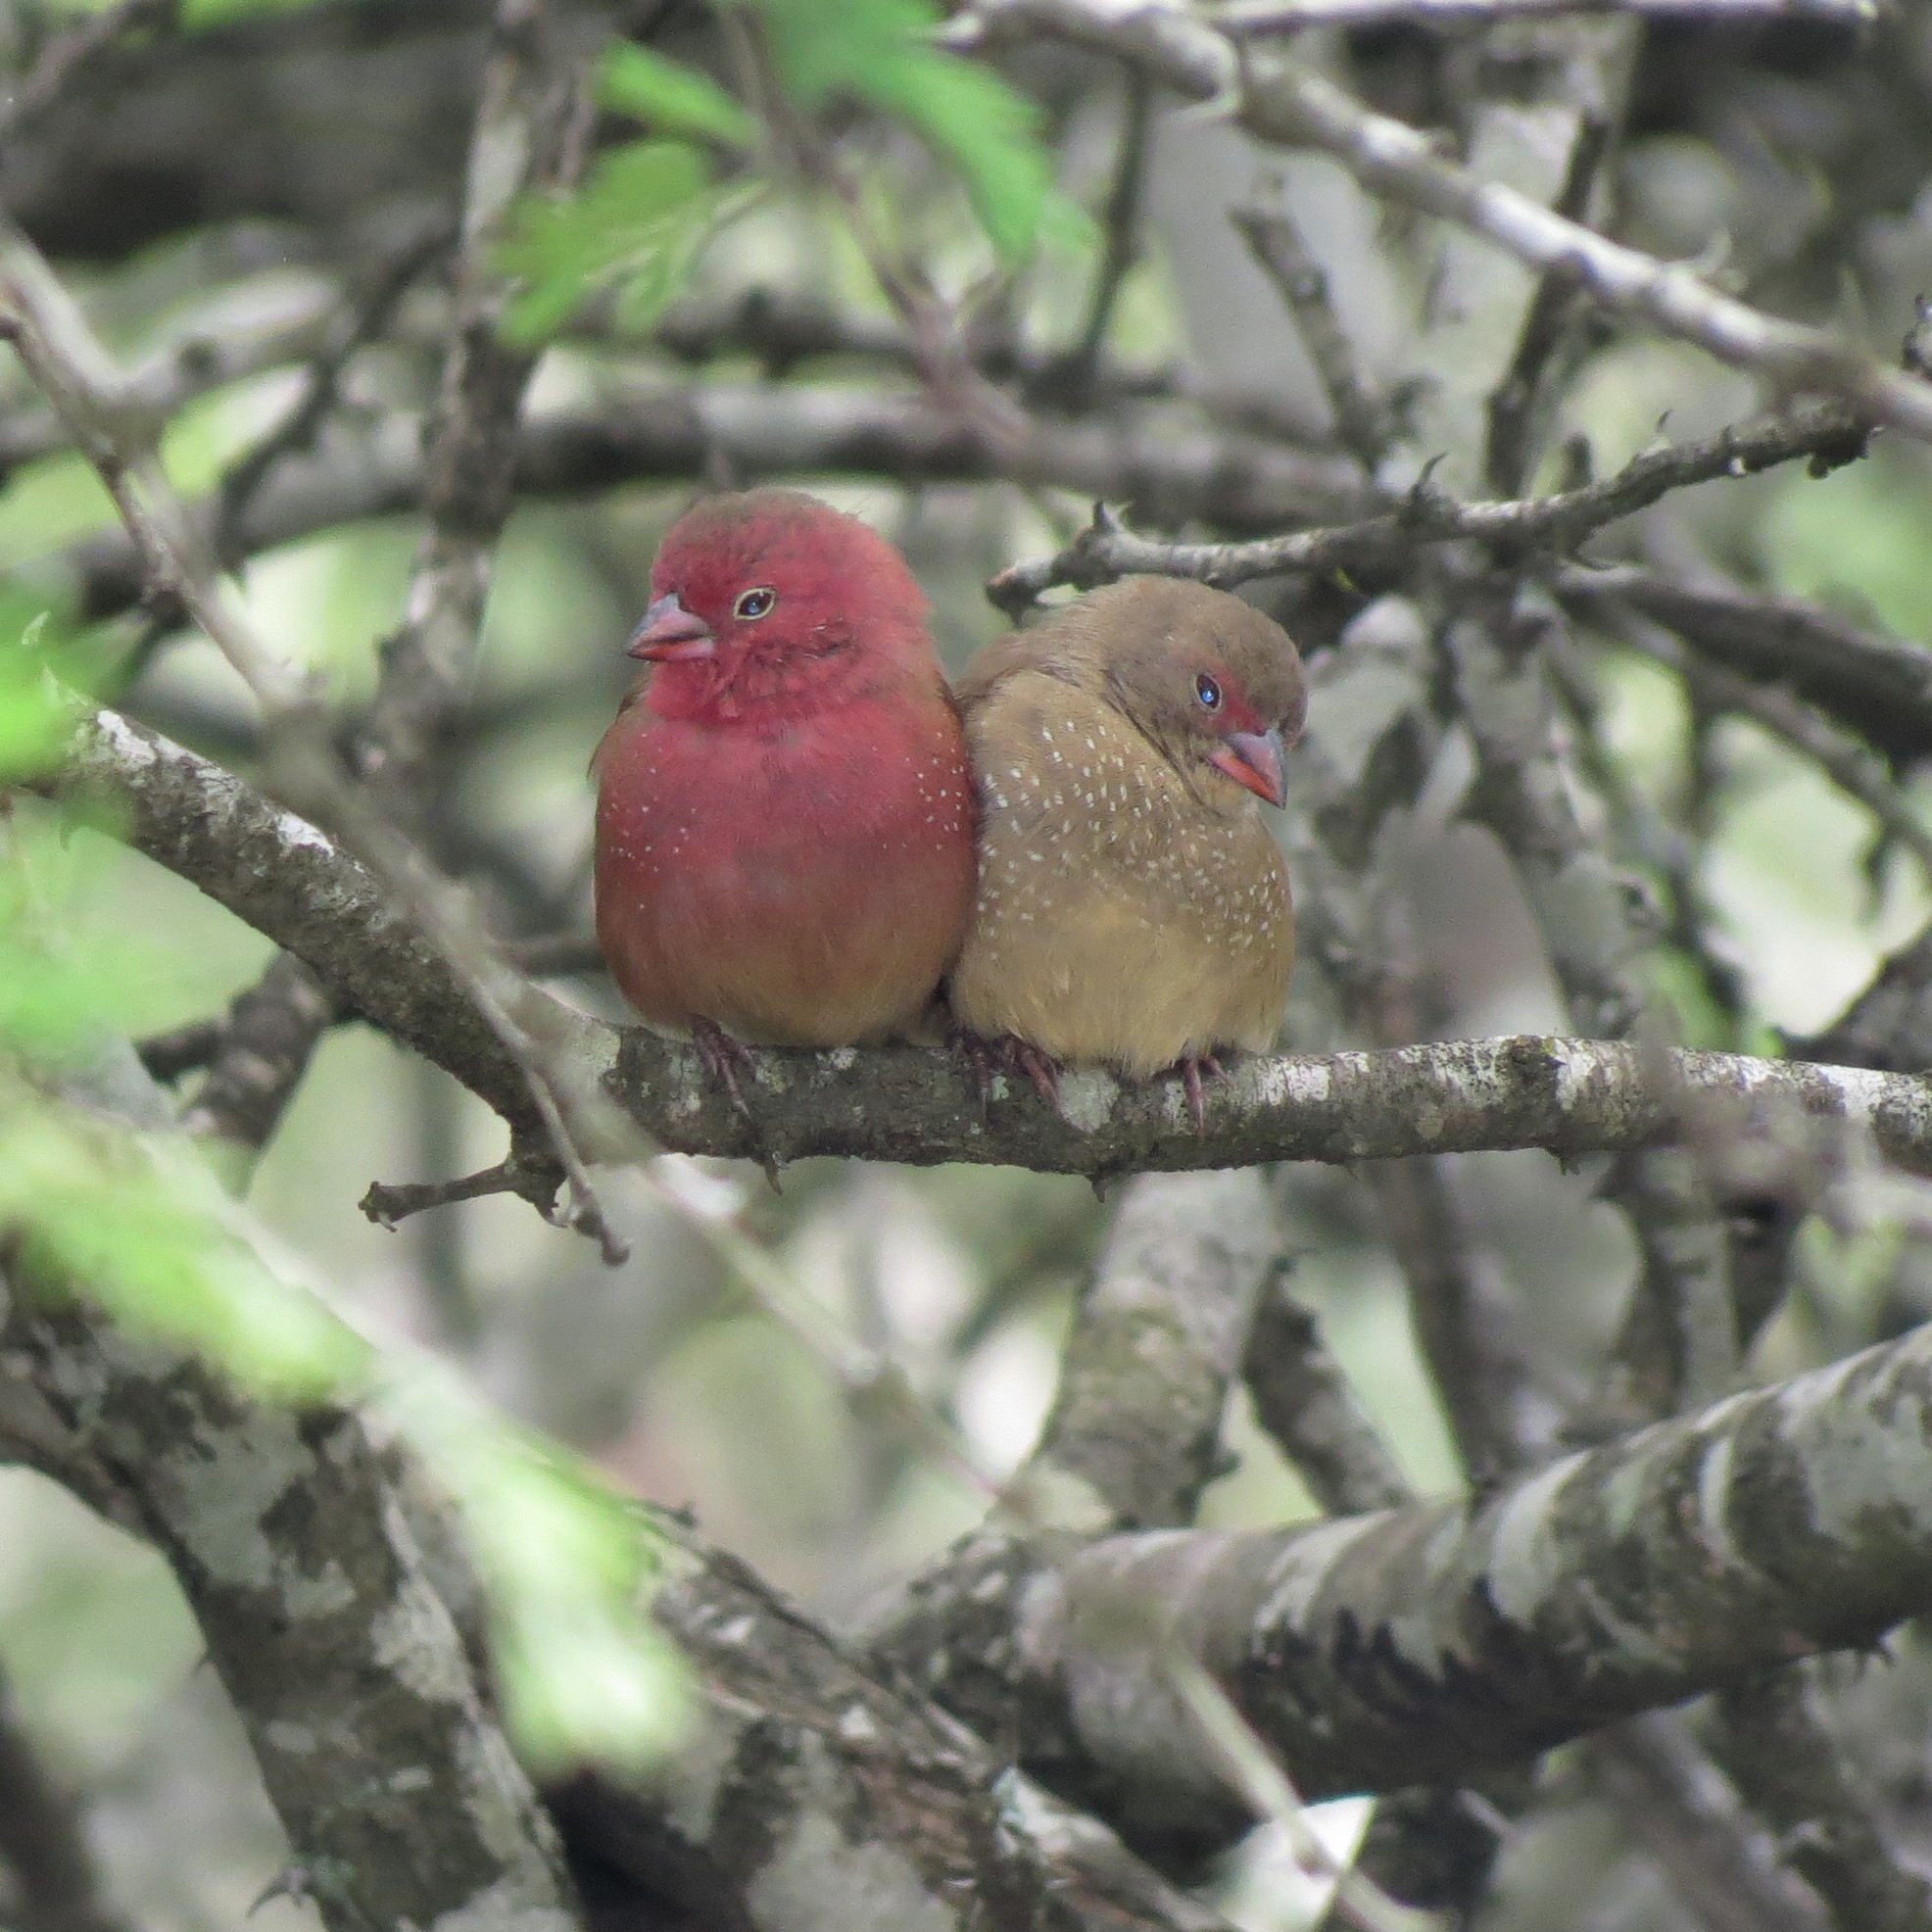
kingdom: Animalia
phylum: Chordata
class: Aves
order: Passeriformes
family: Estrildidae
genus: Lagonosticta
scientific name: Lagonosticta senegala
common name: Red-billed firefinch
